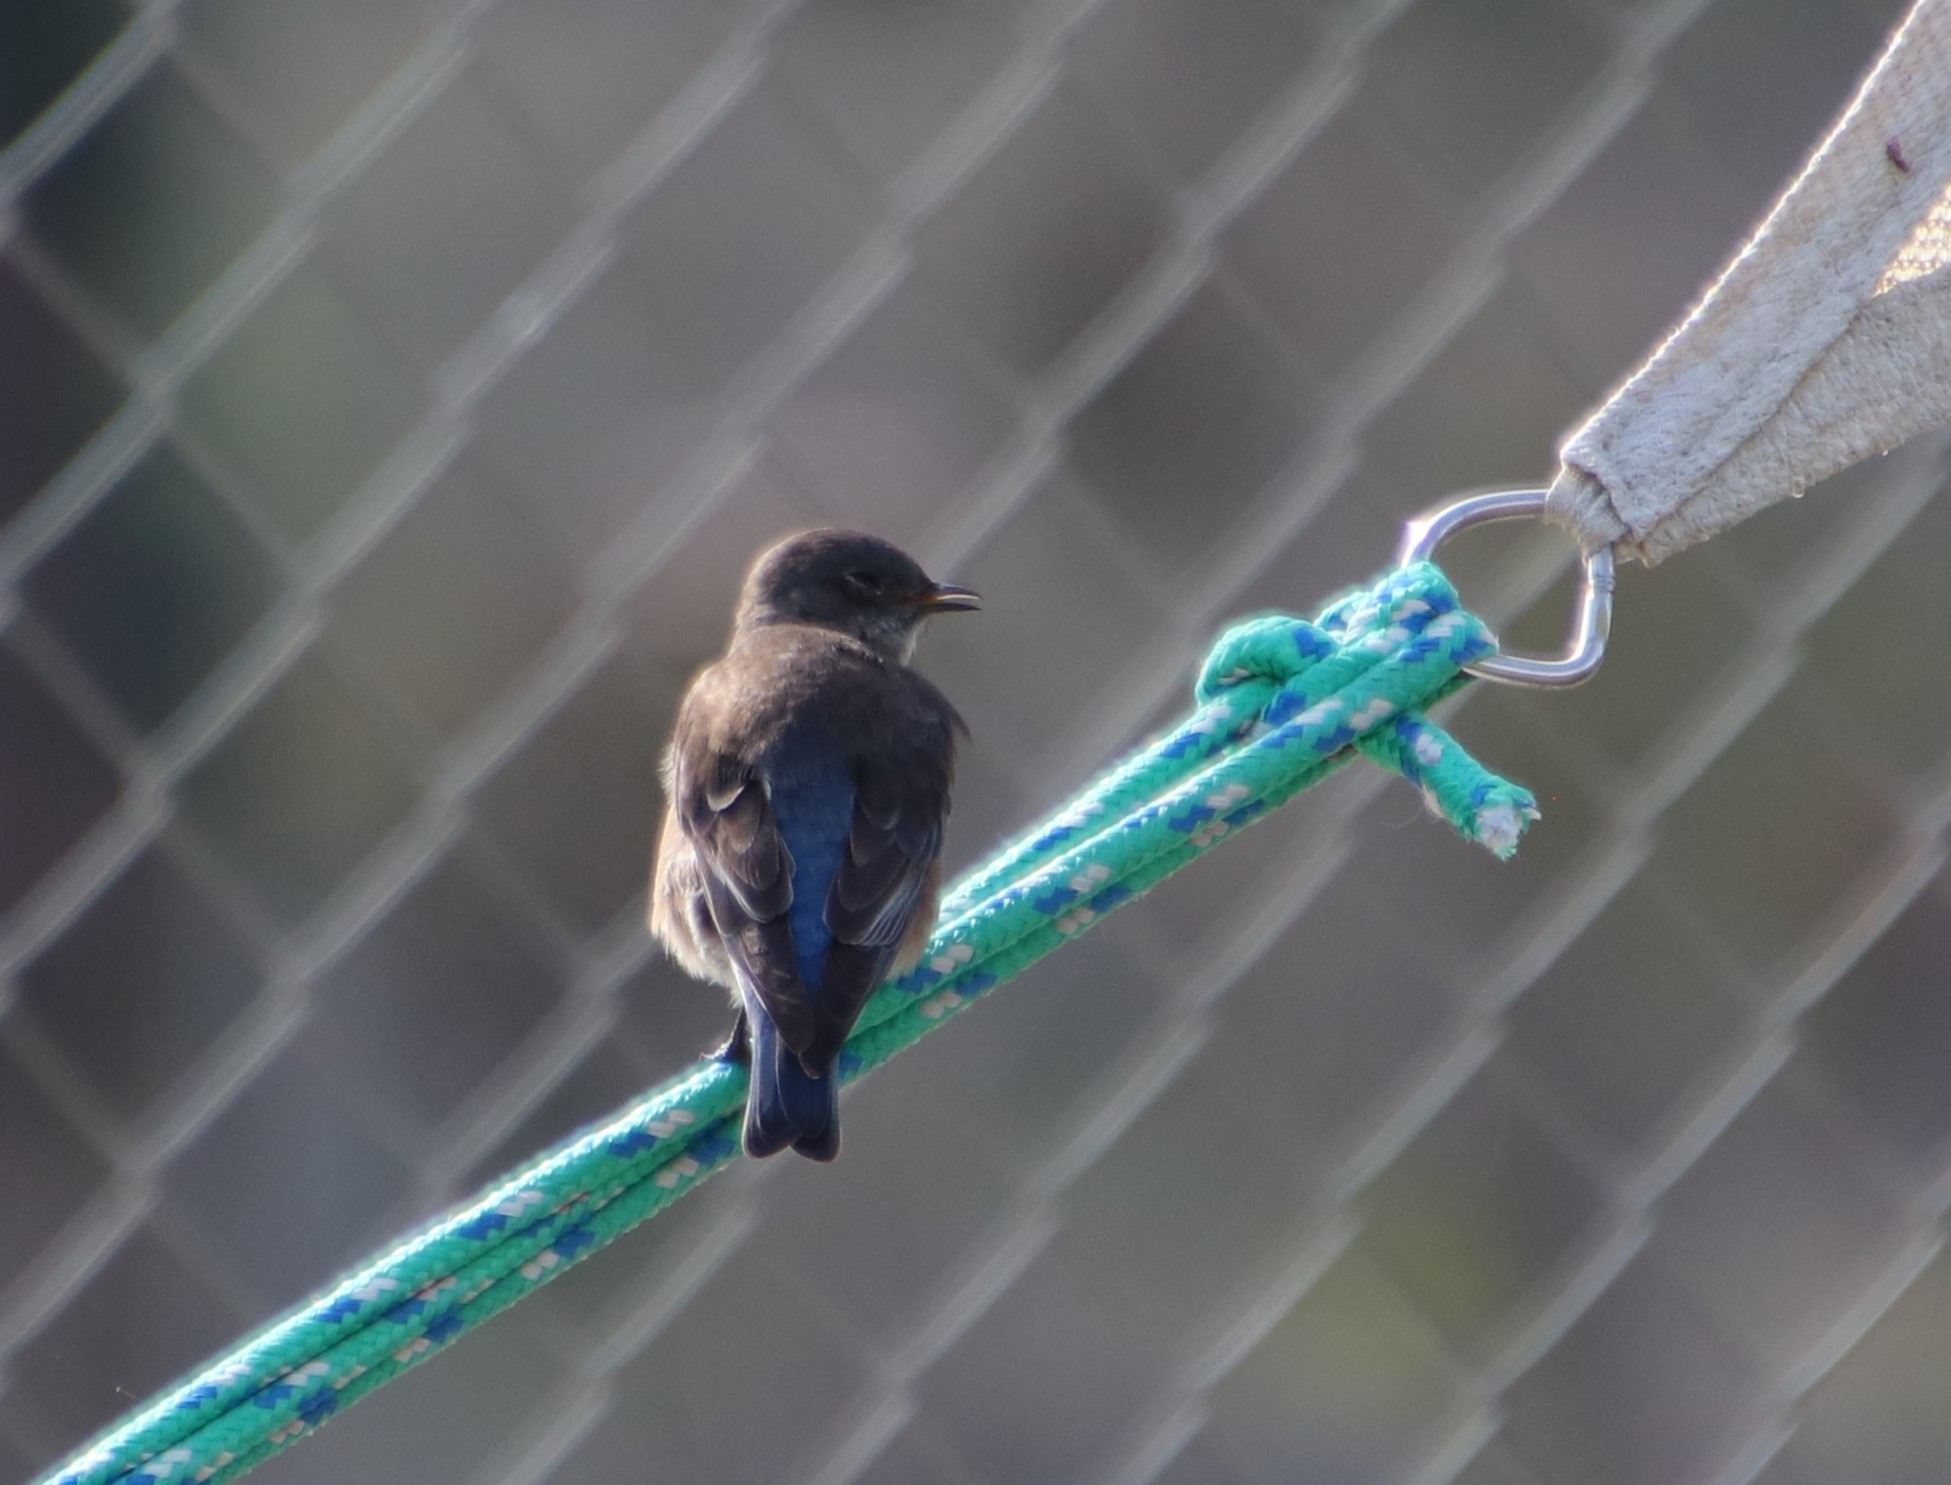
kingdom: Animalia
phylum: Chordata
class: Aves
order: Passeriformes
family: Turdidae
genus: Sialia
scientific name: Sialia mexicana
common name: Western bluebird
